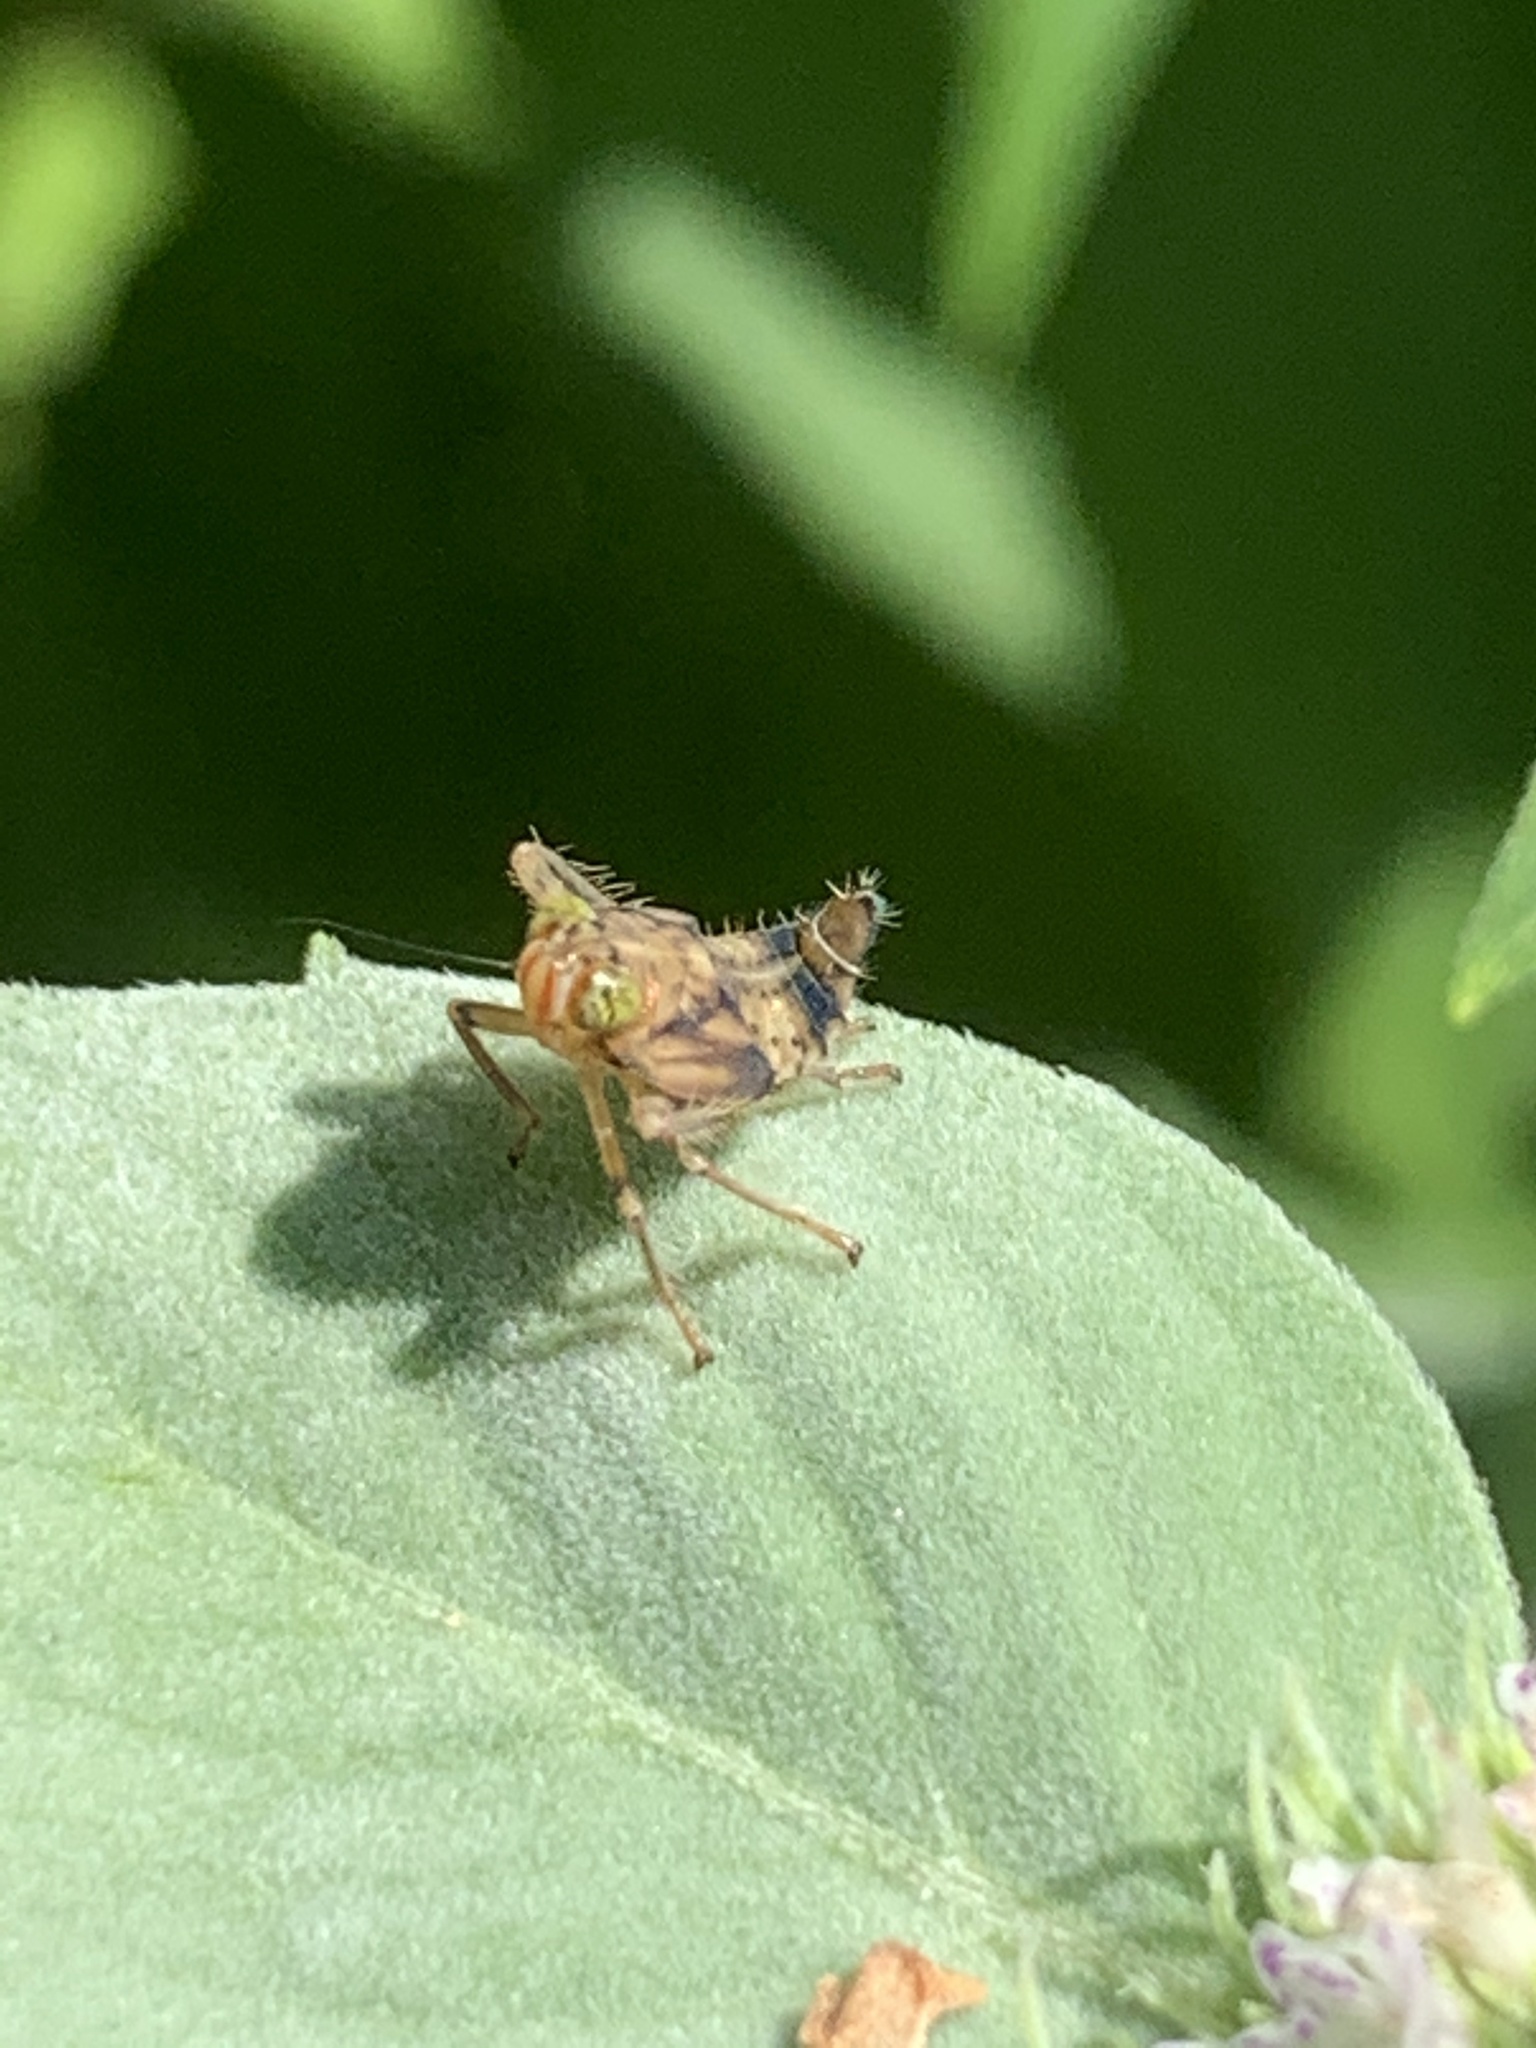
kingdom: Animalia
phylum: Arthropoda
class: Insecta
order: Hemiptera
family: Cicadellidae
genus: Jikradia
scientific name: Jikradia olitoria
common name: Coppery leafhopper
